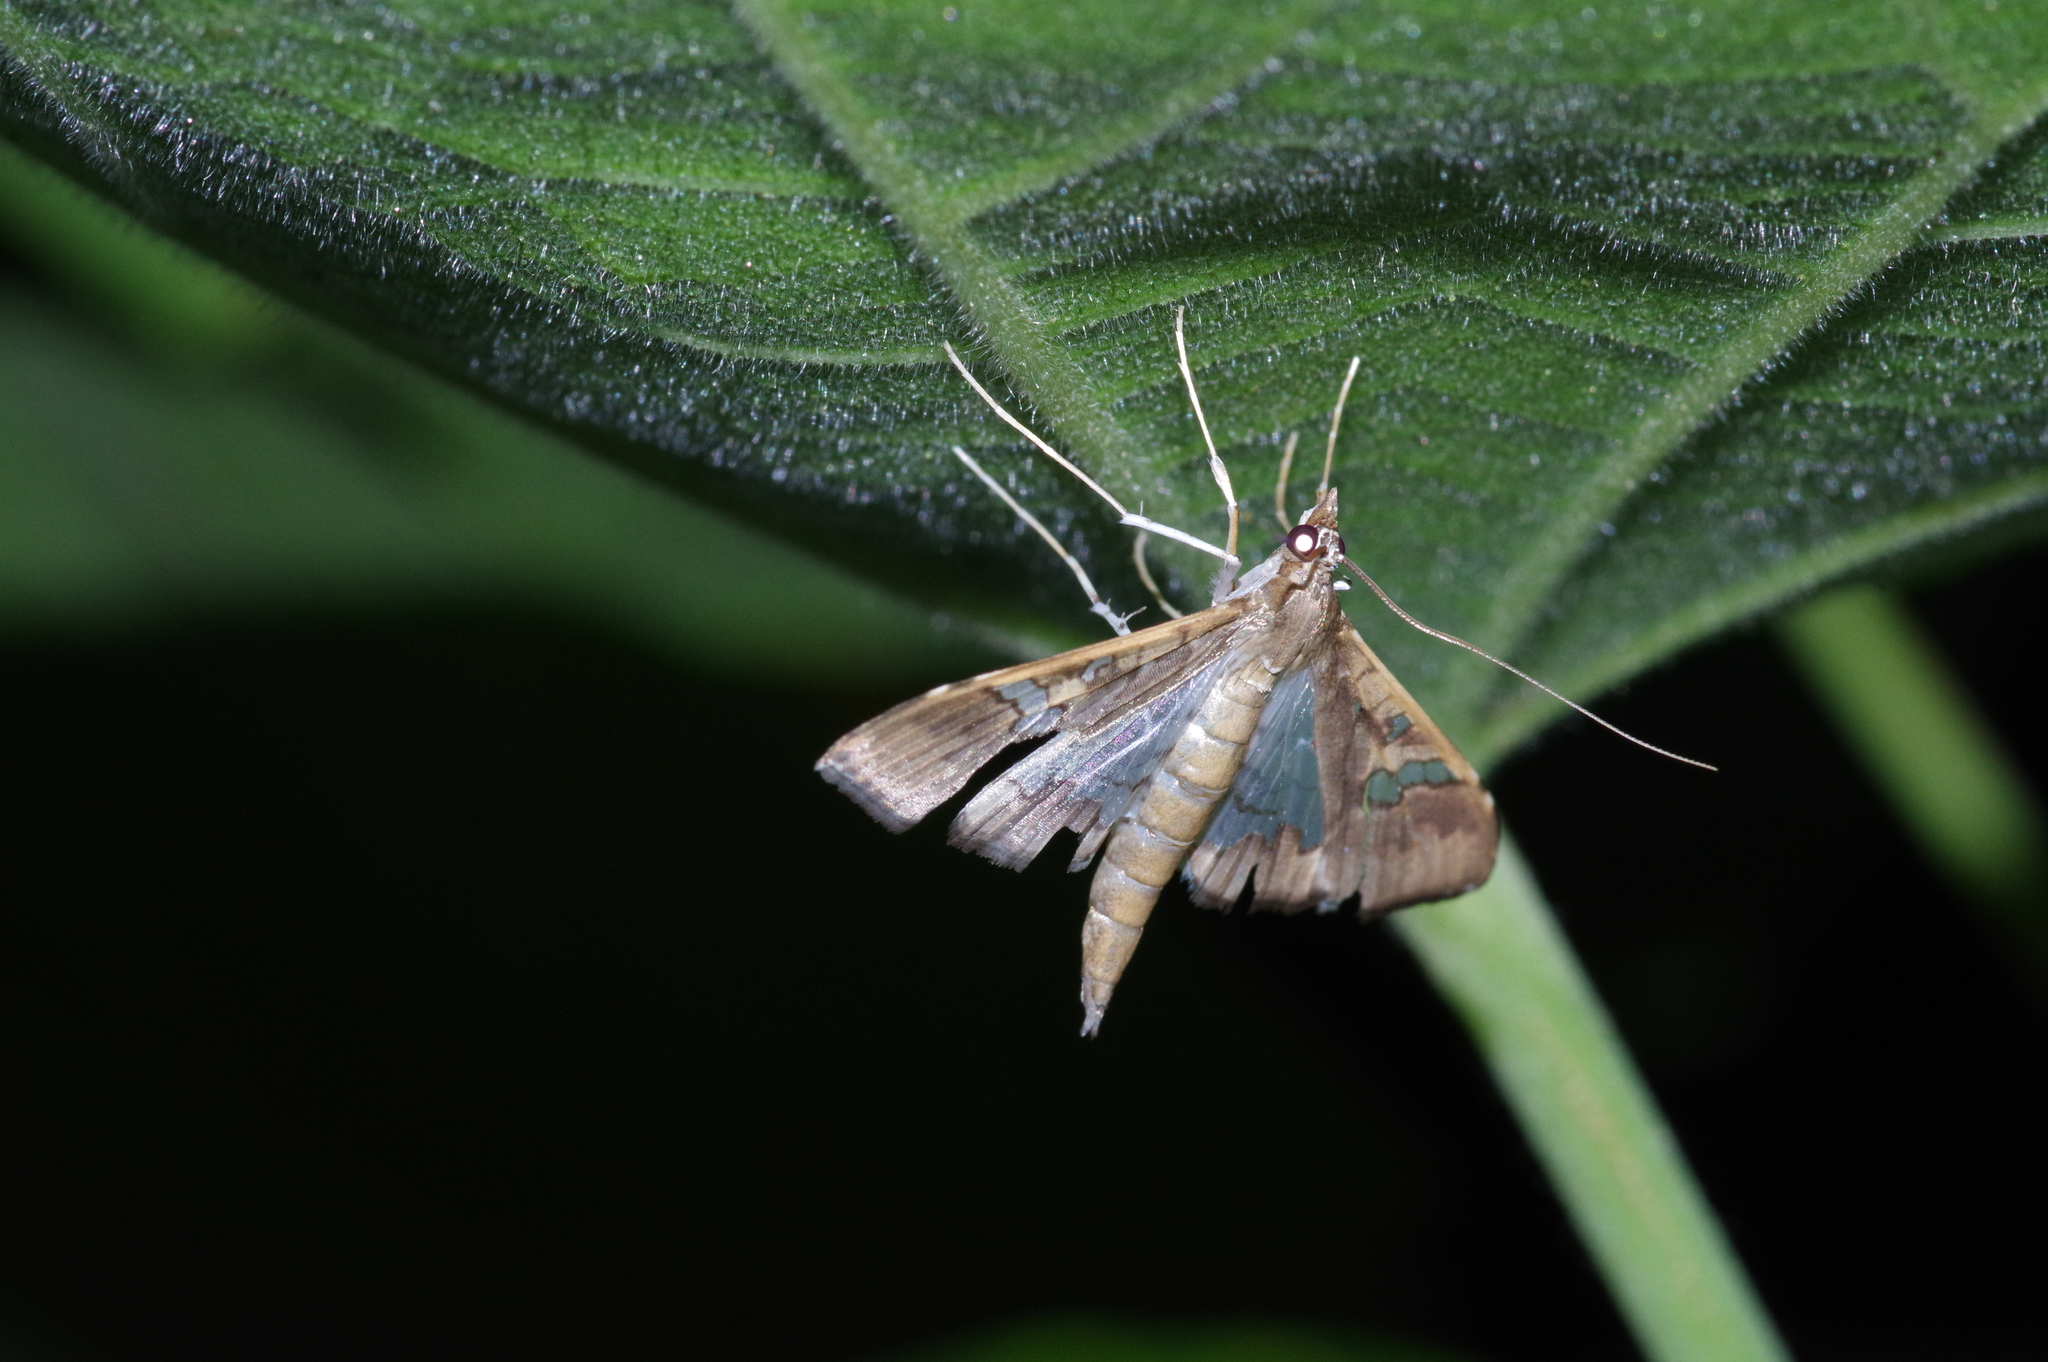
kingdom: Animalia
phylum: Arthropoda
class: Insecta
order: Lepidoptera
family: Crambidae
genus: Maruca
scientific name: Maruca vitrata
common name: Maruca pod borer
